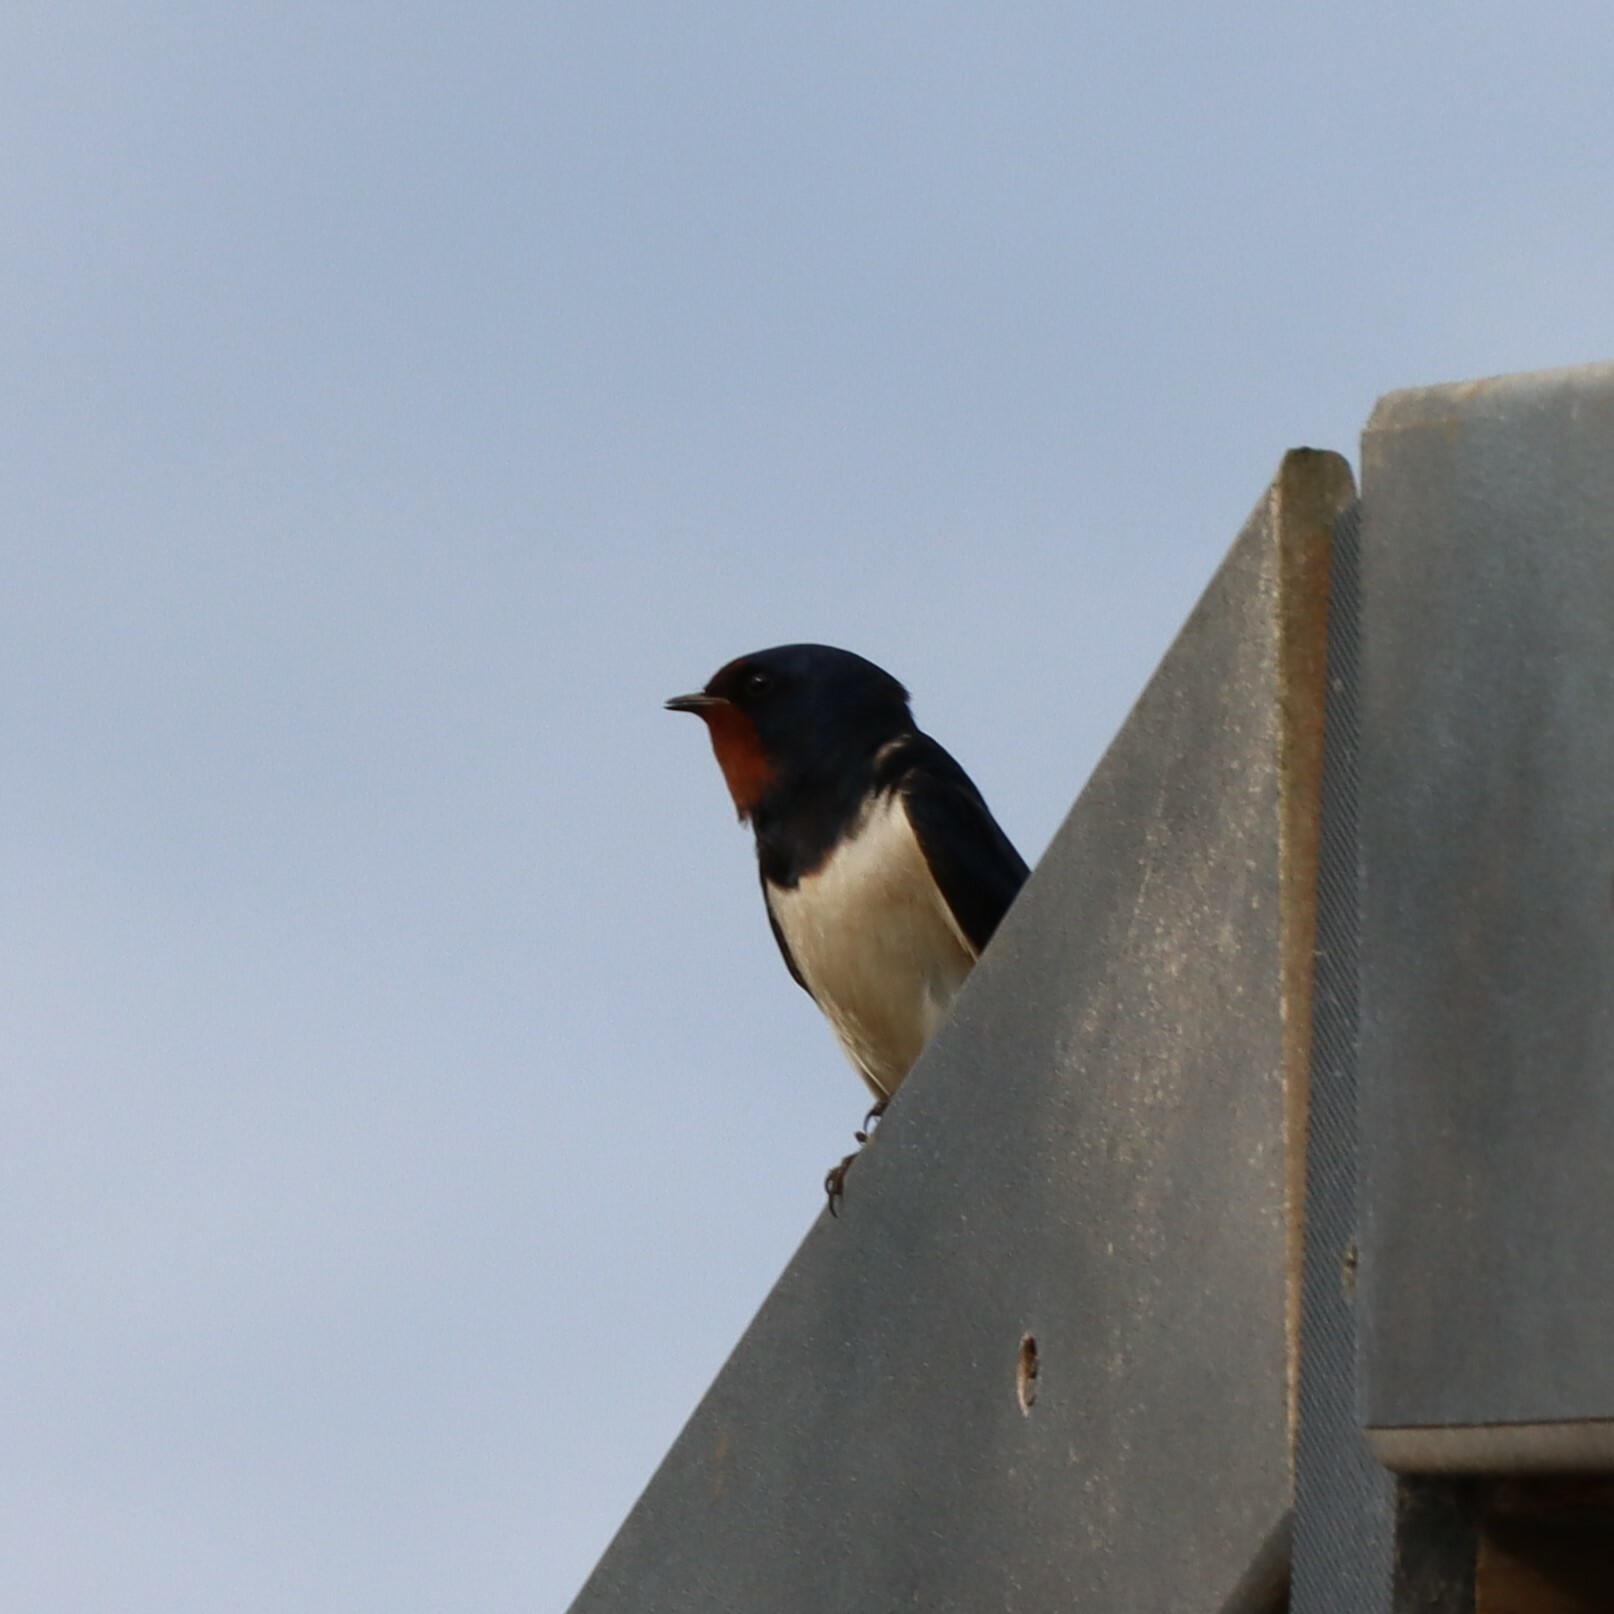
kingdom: Animalia
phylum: Chordata
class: Aves
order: Passeriformes
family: Hirundinidae
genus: Hirundo
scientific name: Hirundo rustica
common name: Barn swallow
